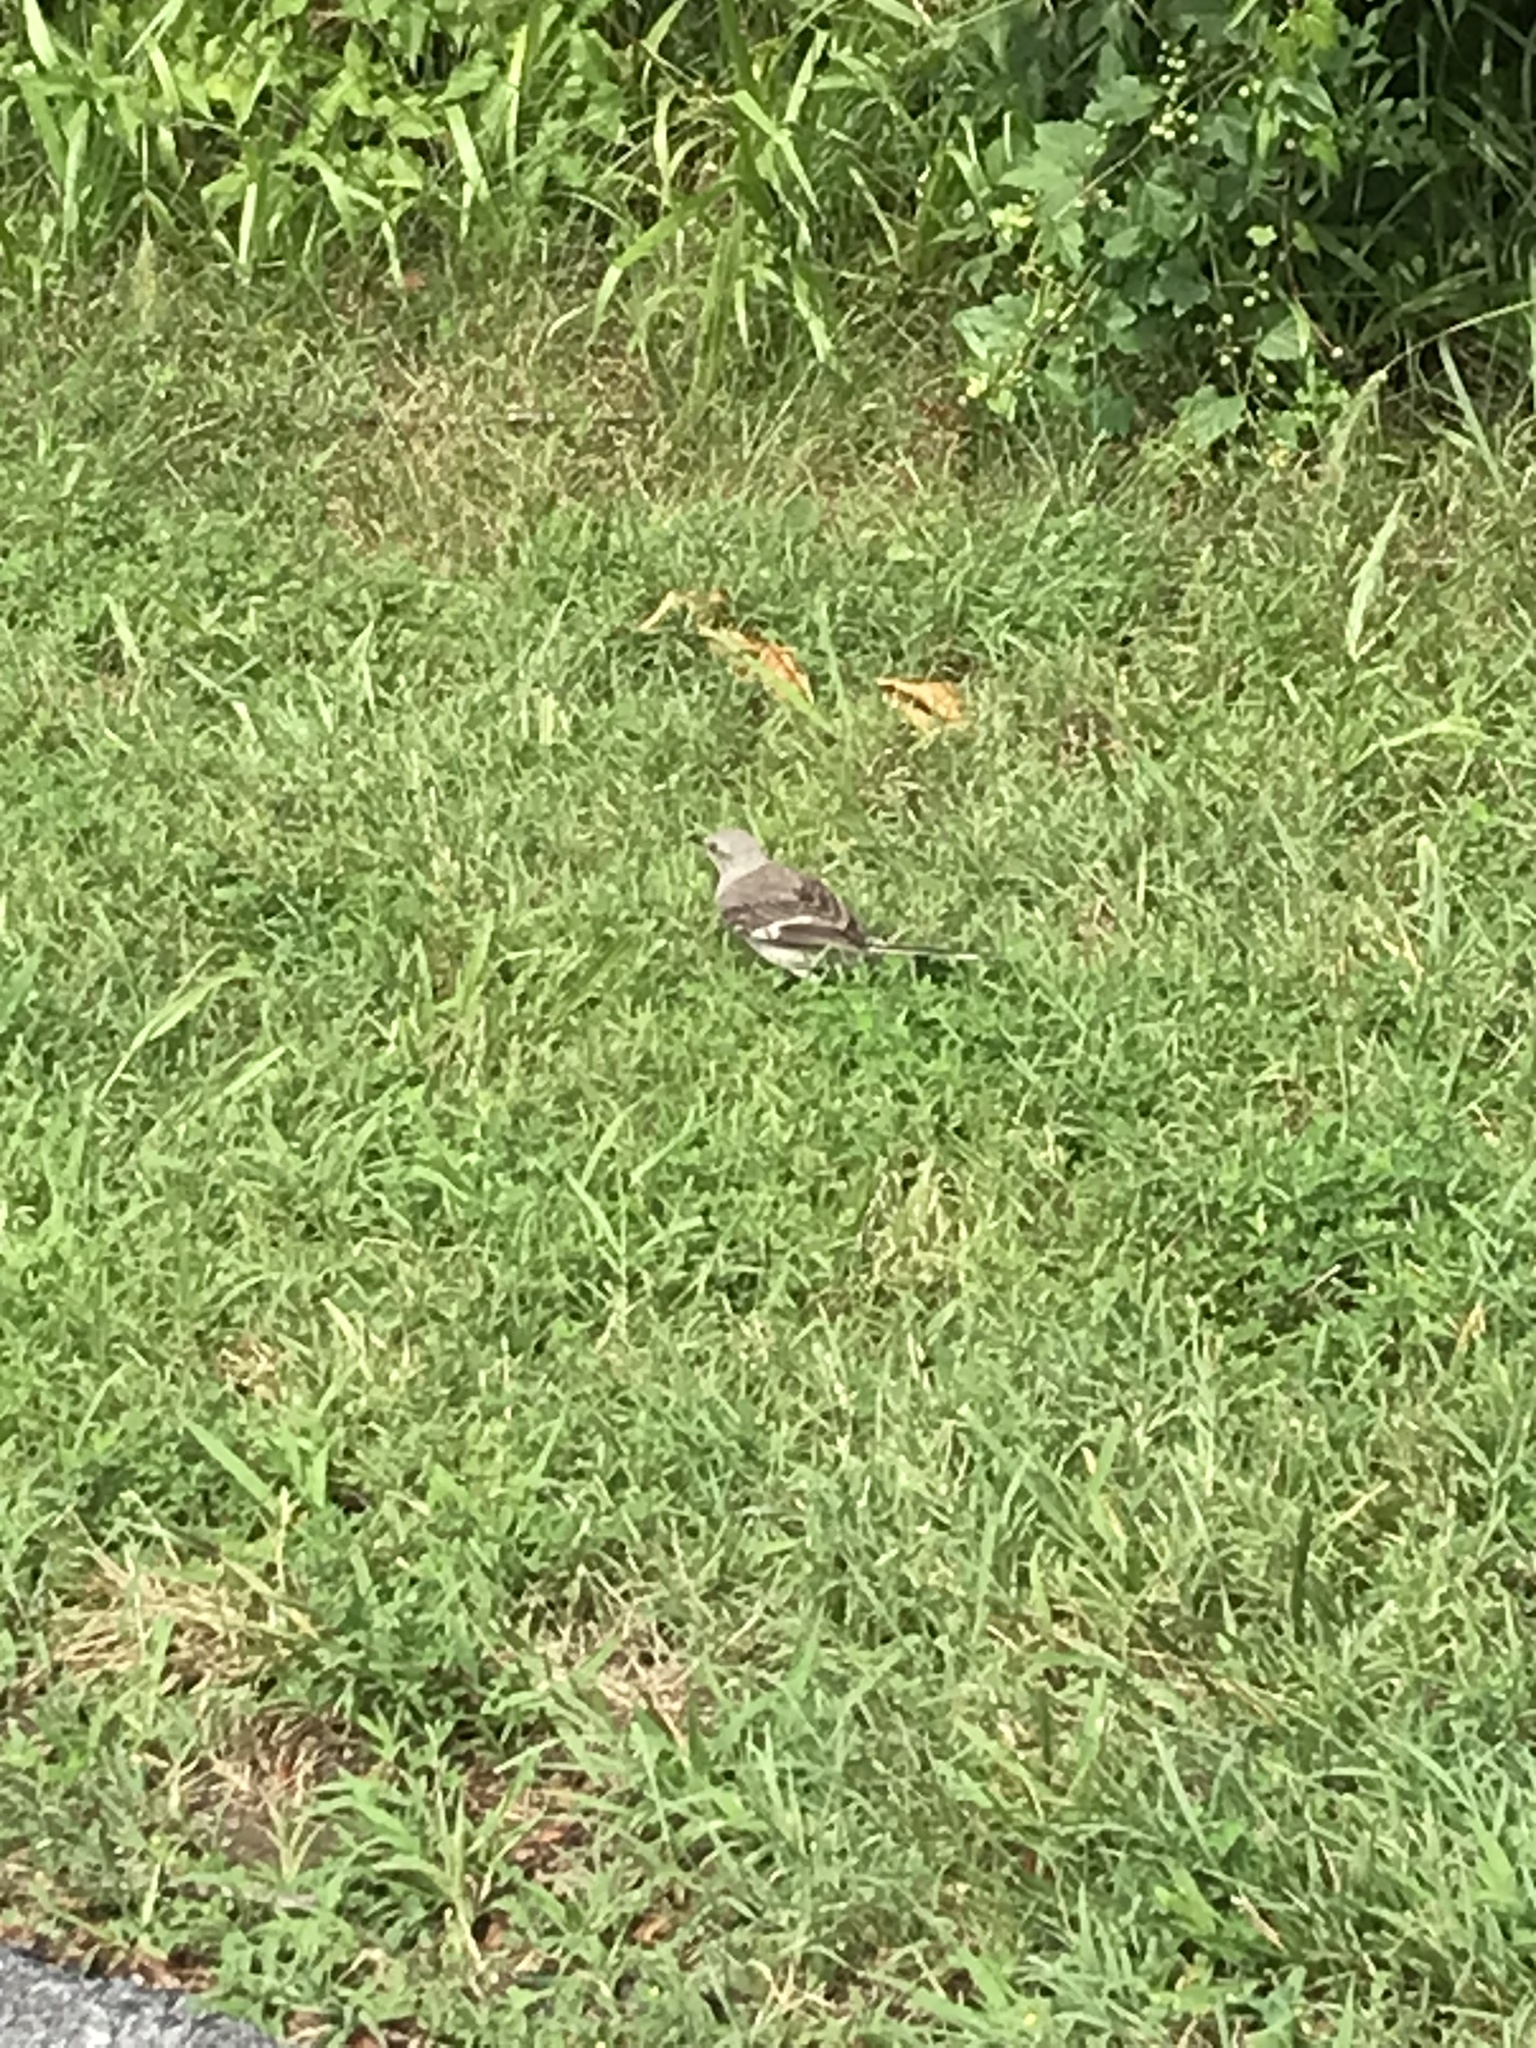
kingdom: Animalia
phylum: Chordata
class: Aves
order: Passeriformes
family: Mimidae
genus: Mimus
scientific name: Mimus polyglottos
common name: Northern mockingbird
